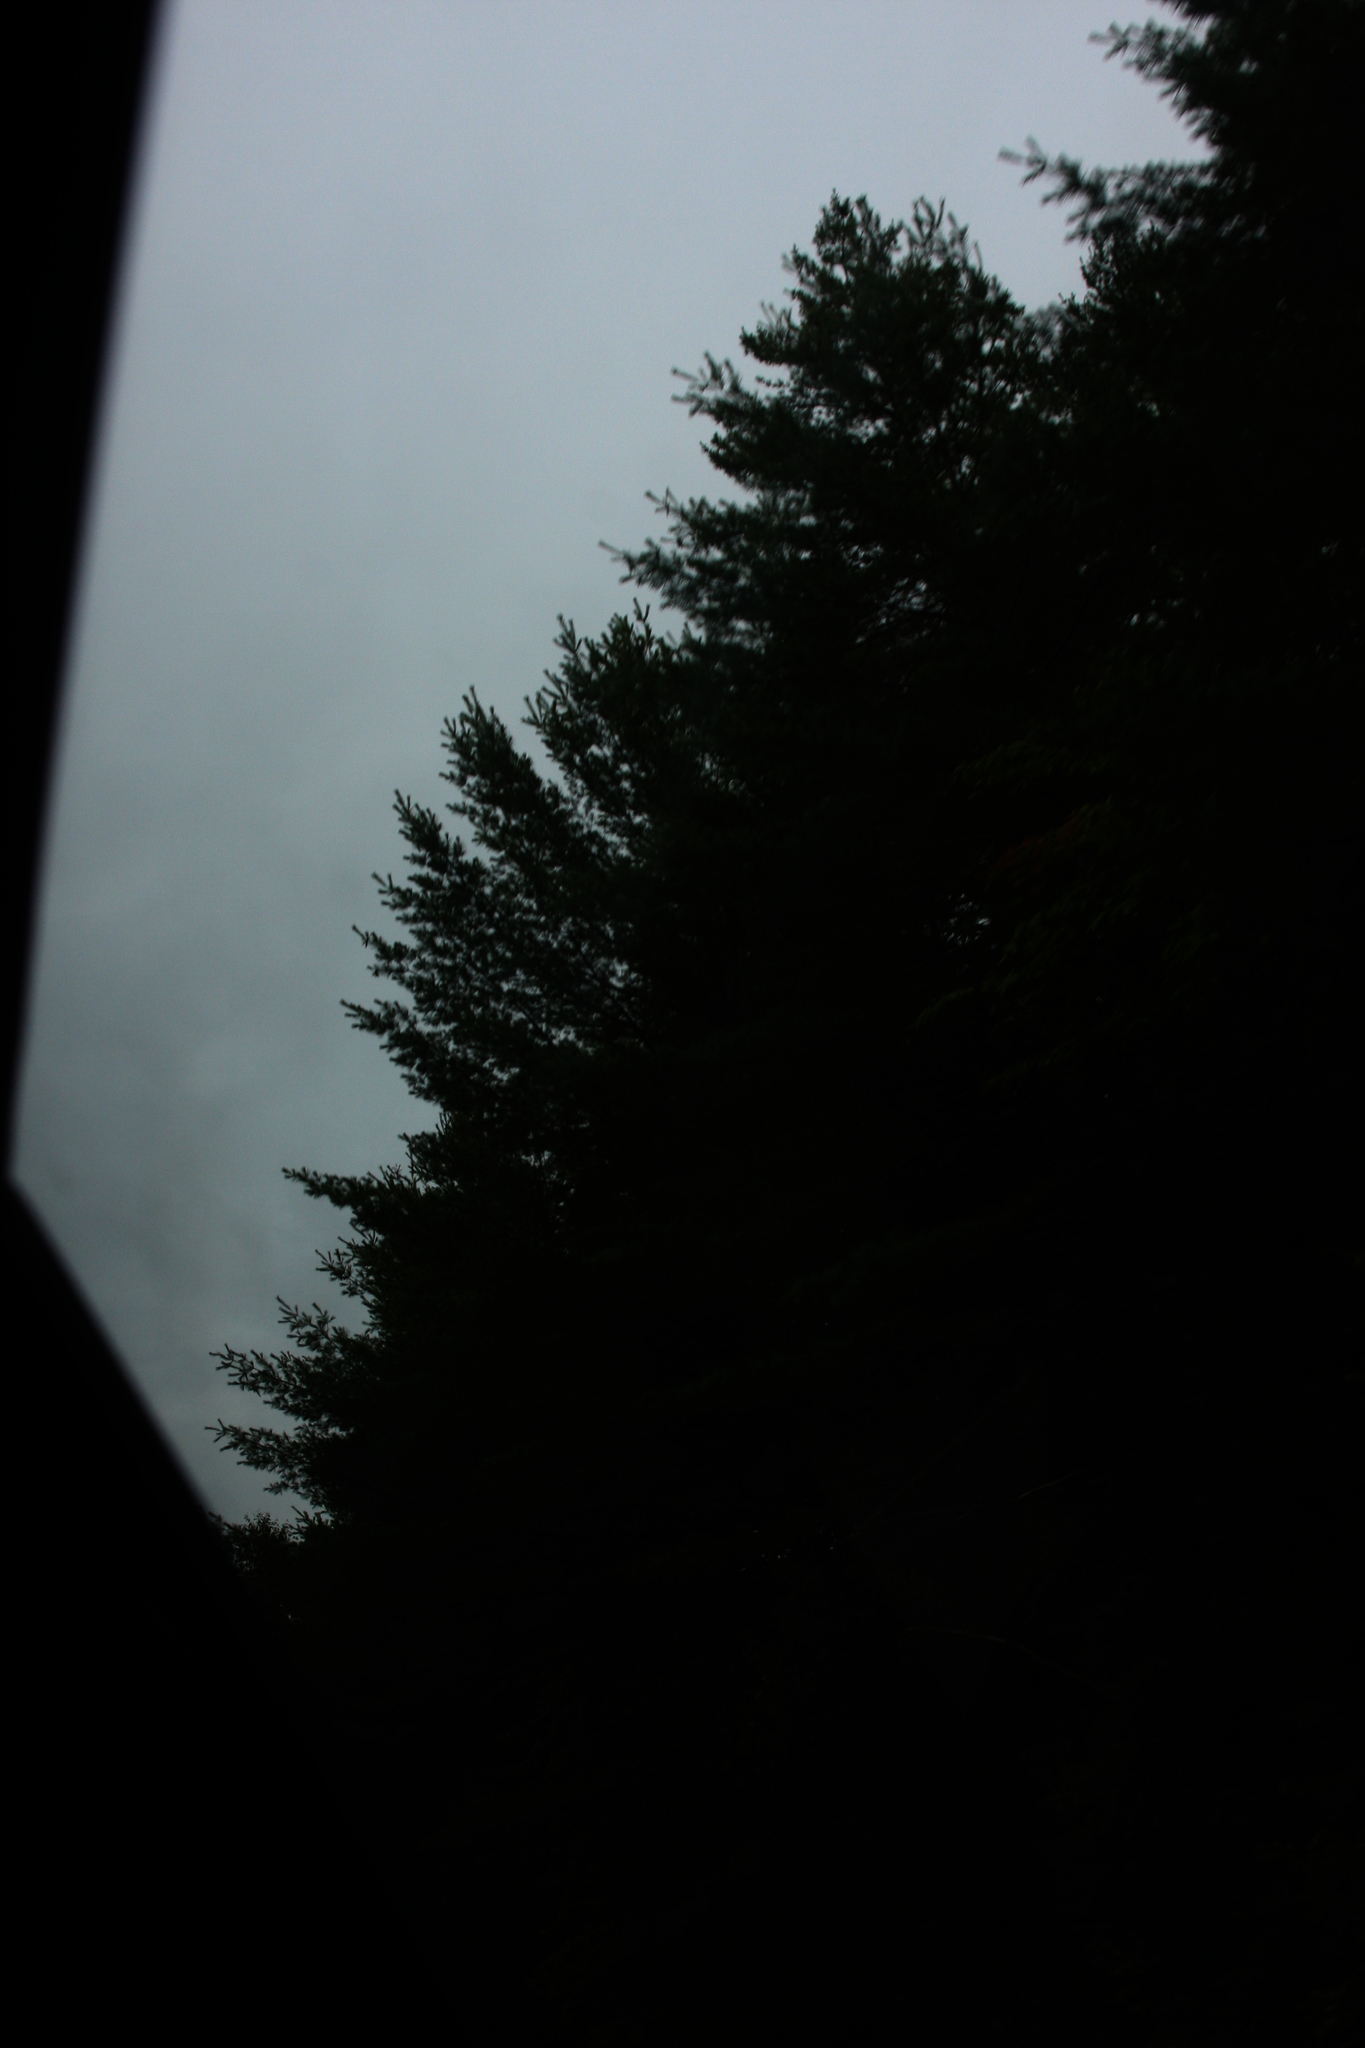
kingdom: Plantae
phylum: Tracheophyta
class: Pinopsida
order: Pinales
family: Pinaceae
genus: Pinus
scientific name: Pinus strobus
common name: Weymouth pine
